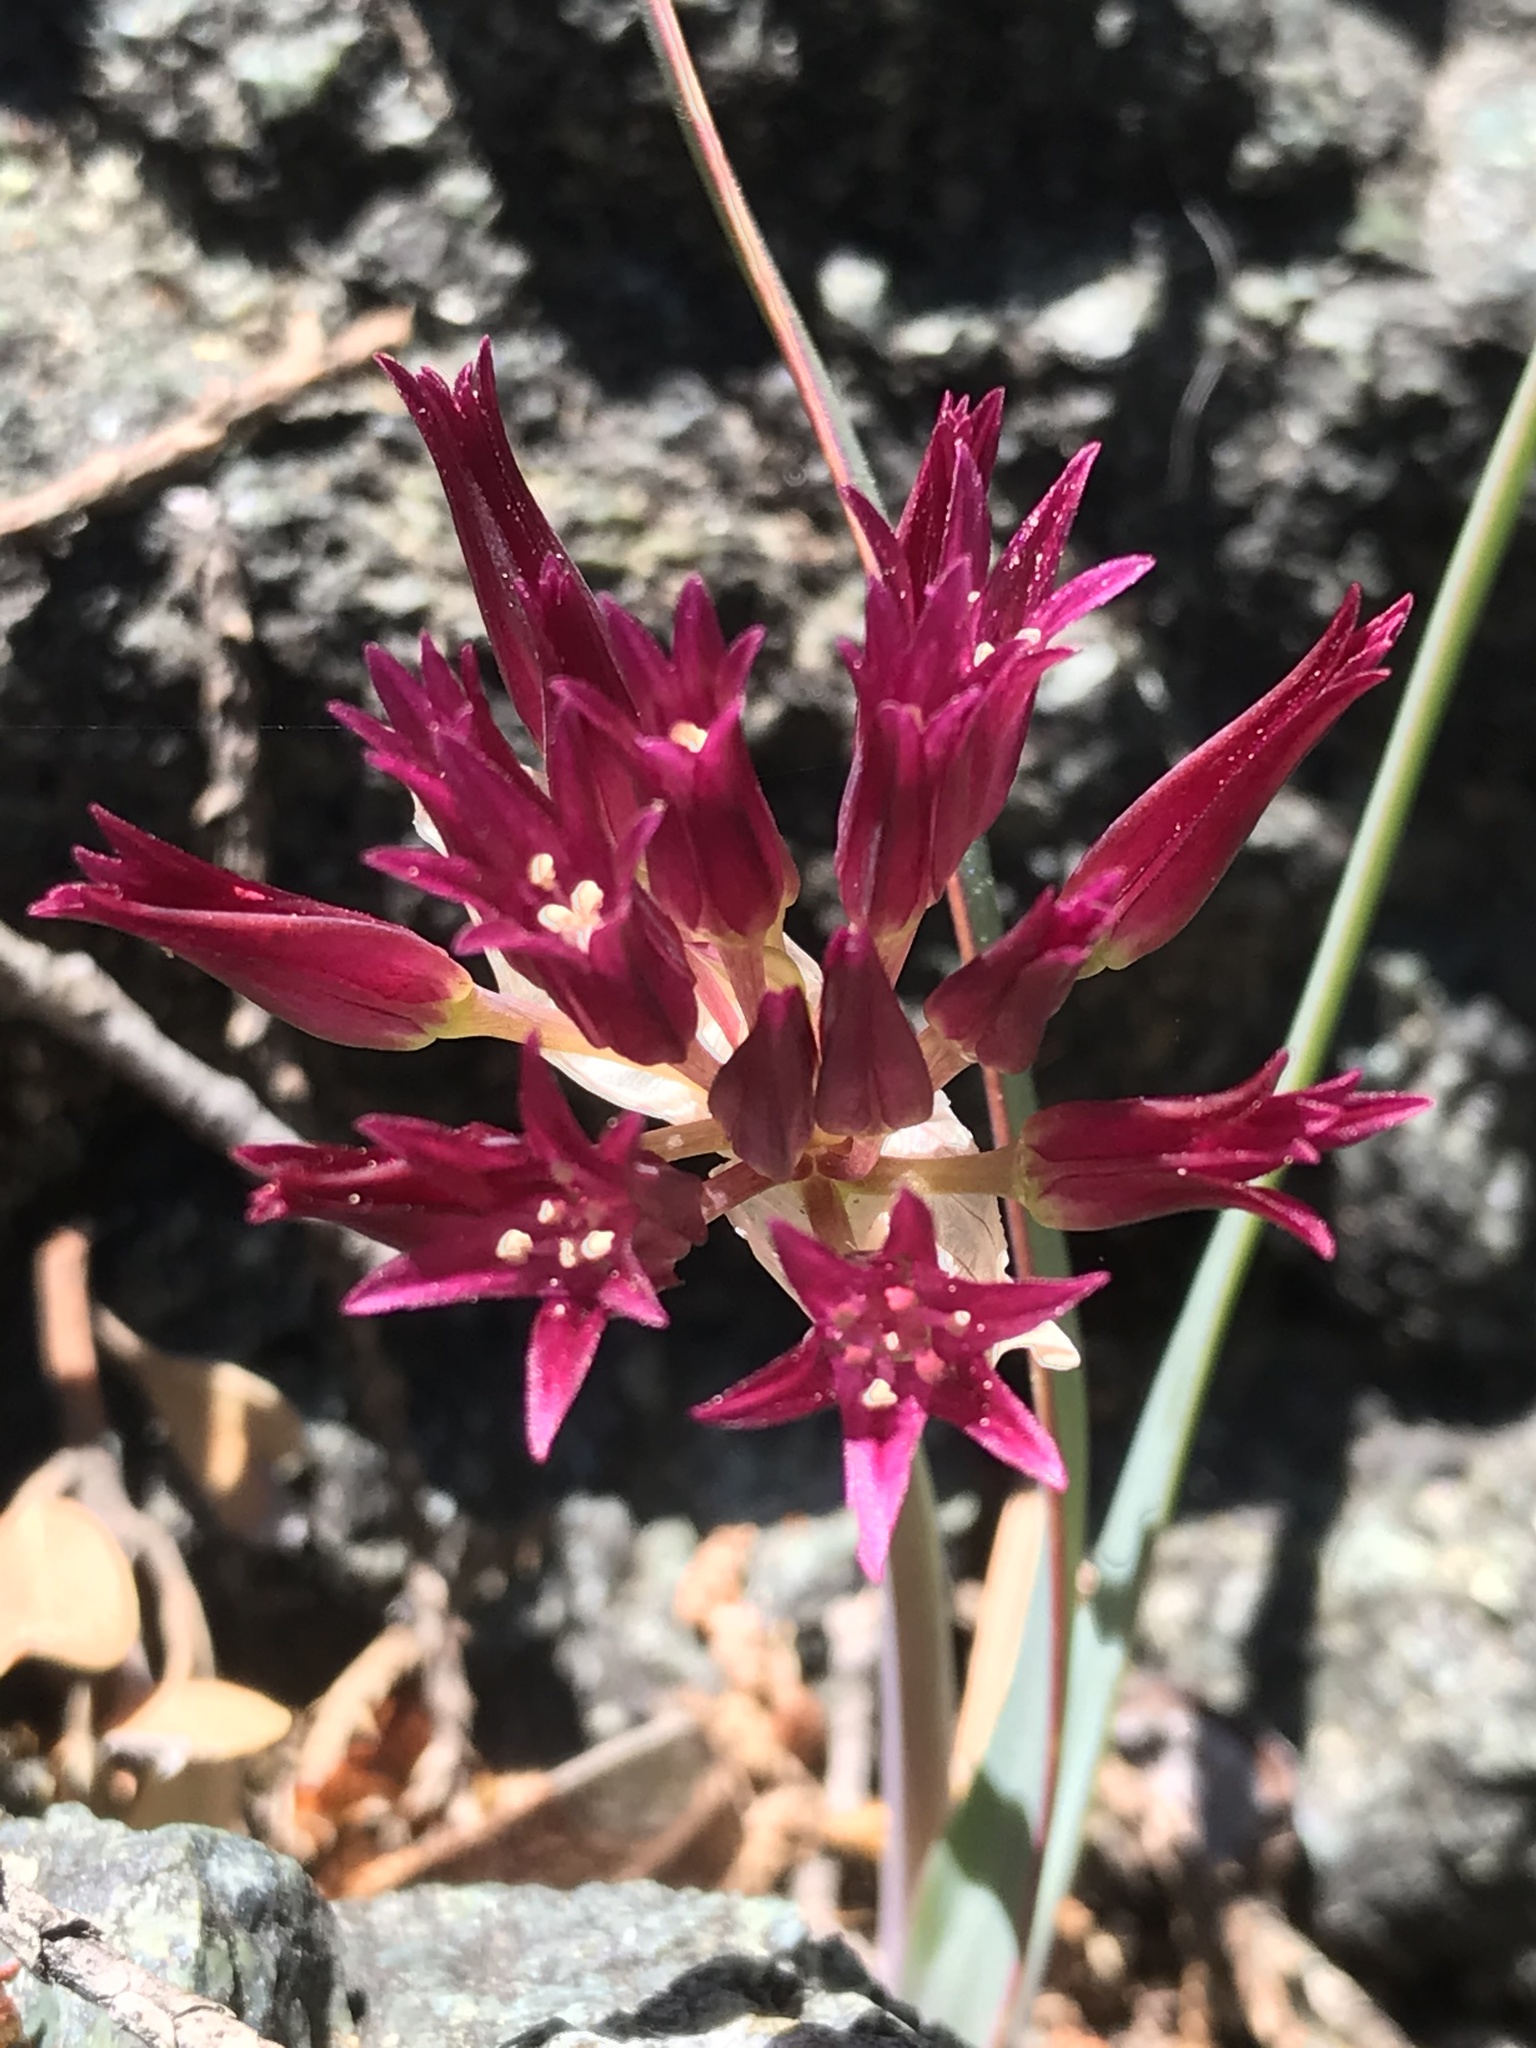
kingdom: Plantae
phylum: Tracheophyta
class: Liliopsida
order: Asparagales
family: Amaryllidaceae
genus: Allium
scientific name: Allium falcifolium
